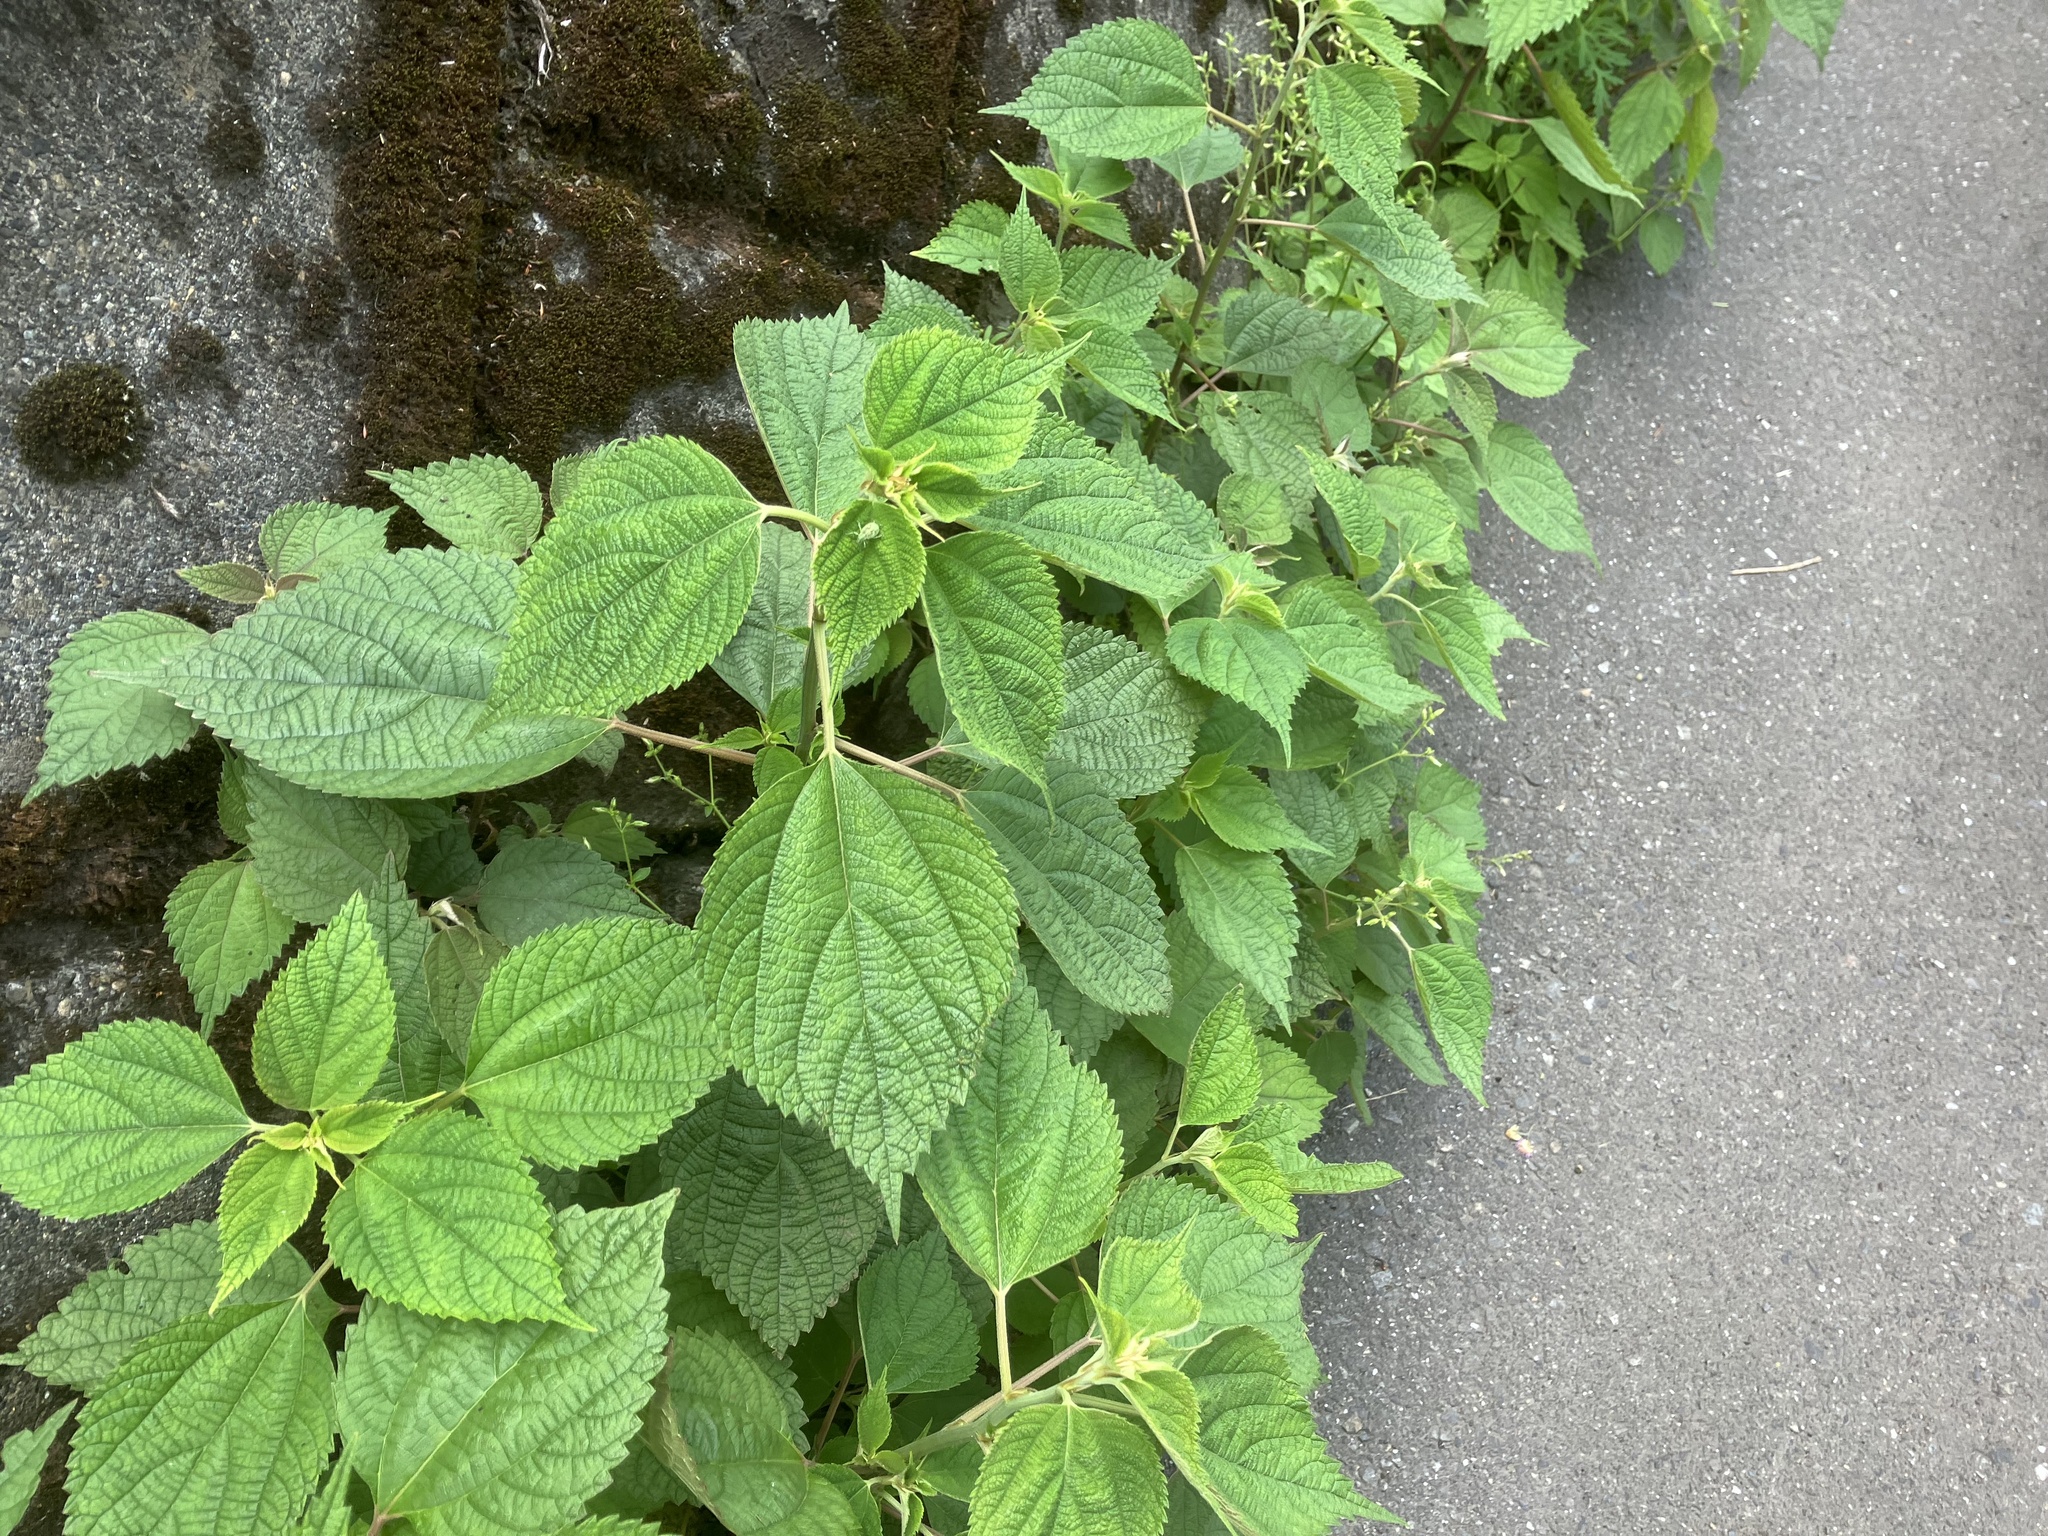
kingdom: Plantae
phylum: Tracheophyta
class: Magnoliopsida
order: Rosales
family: Urticaceae
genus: Boehmeria
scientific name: Boehmeria nivea
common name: Ramie chinese grass
